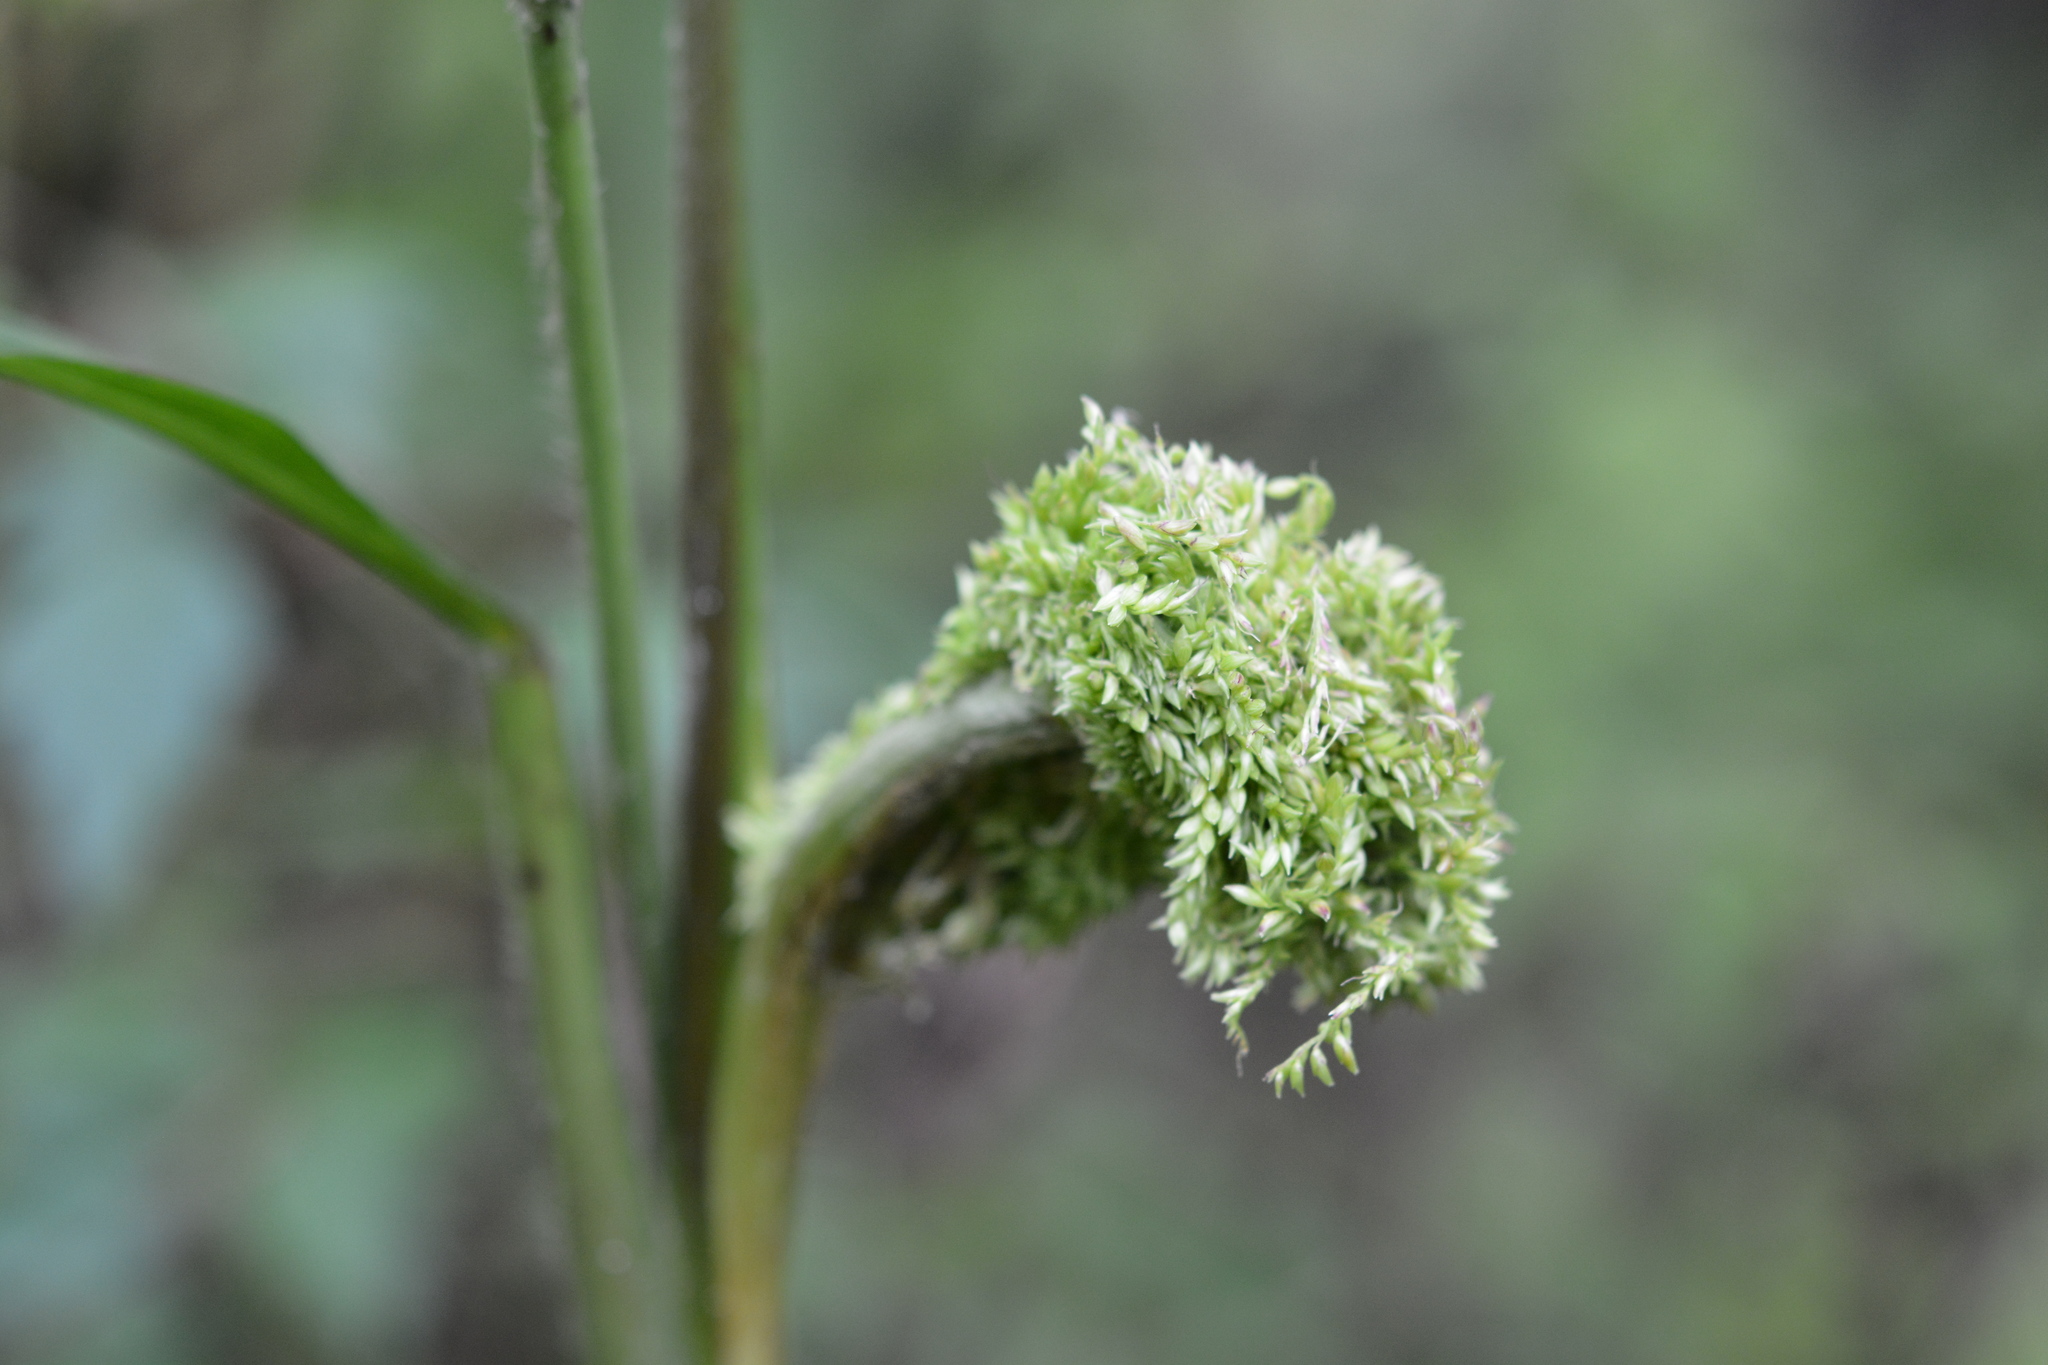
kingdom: Plantae
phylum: Tracheophyta
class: Liliopsida
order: Poales
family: Poaceae
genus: Setaria
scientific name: Setaria palmifolia
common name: Broadleaved bristlegrass
